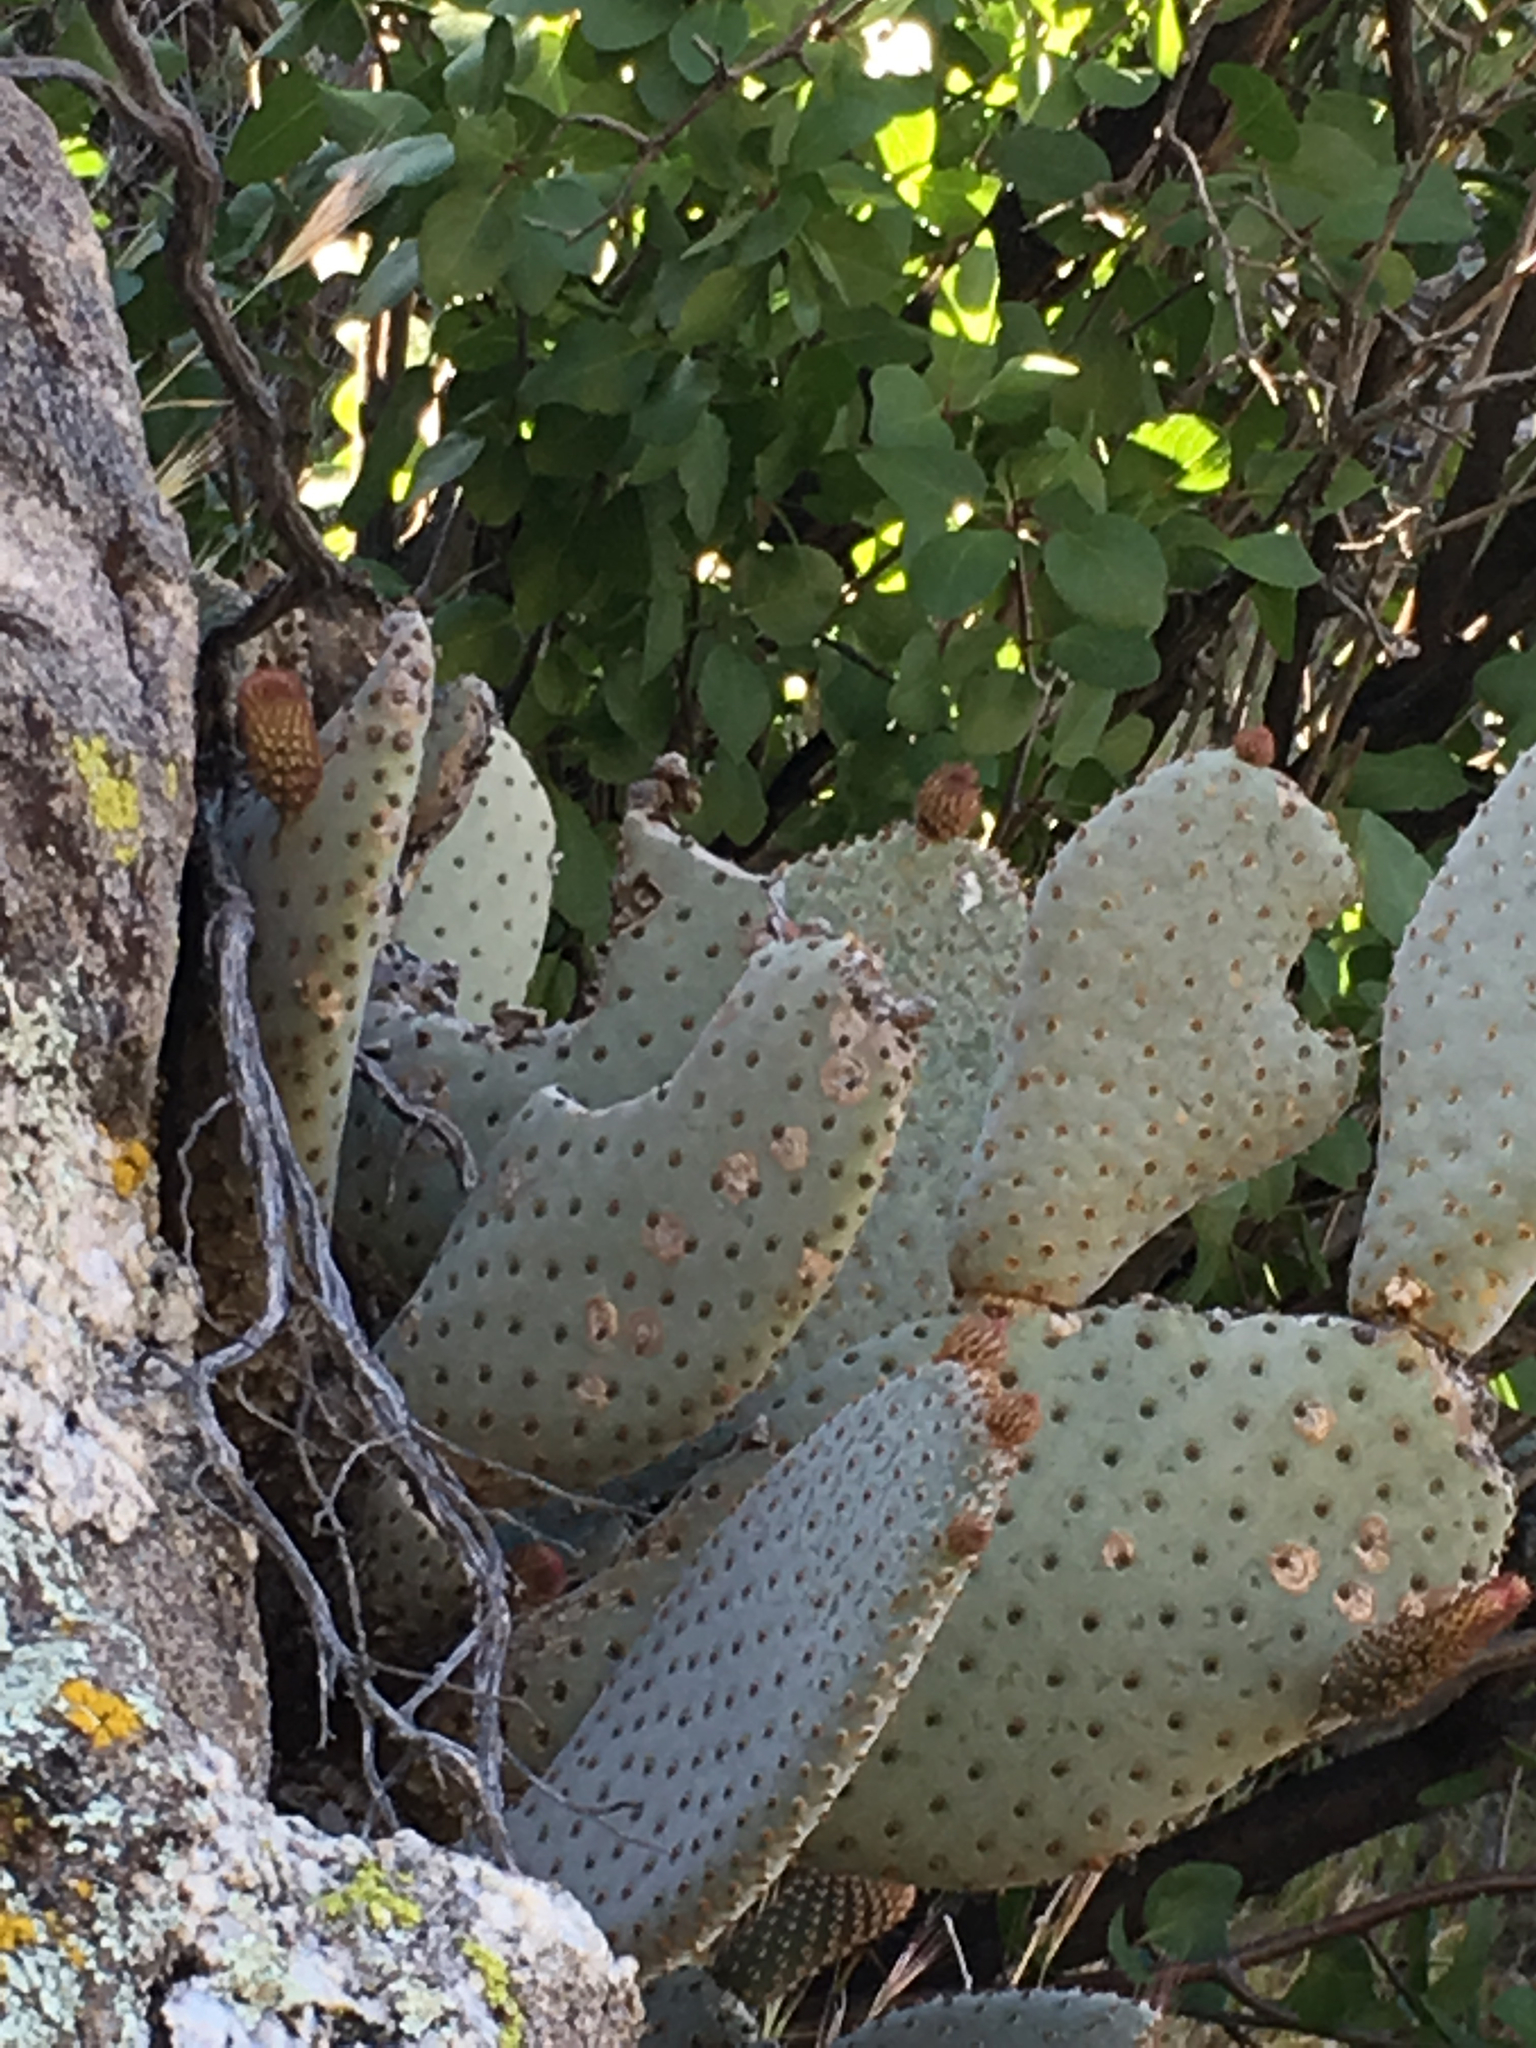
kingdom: Plantae
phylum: Tracheophyta
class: Magnoliopsida
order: Caryophyllales
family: Cactaceae
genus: Opuntia
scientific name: Opuntia basilaris
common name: Beavertail prickly-pear
